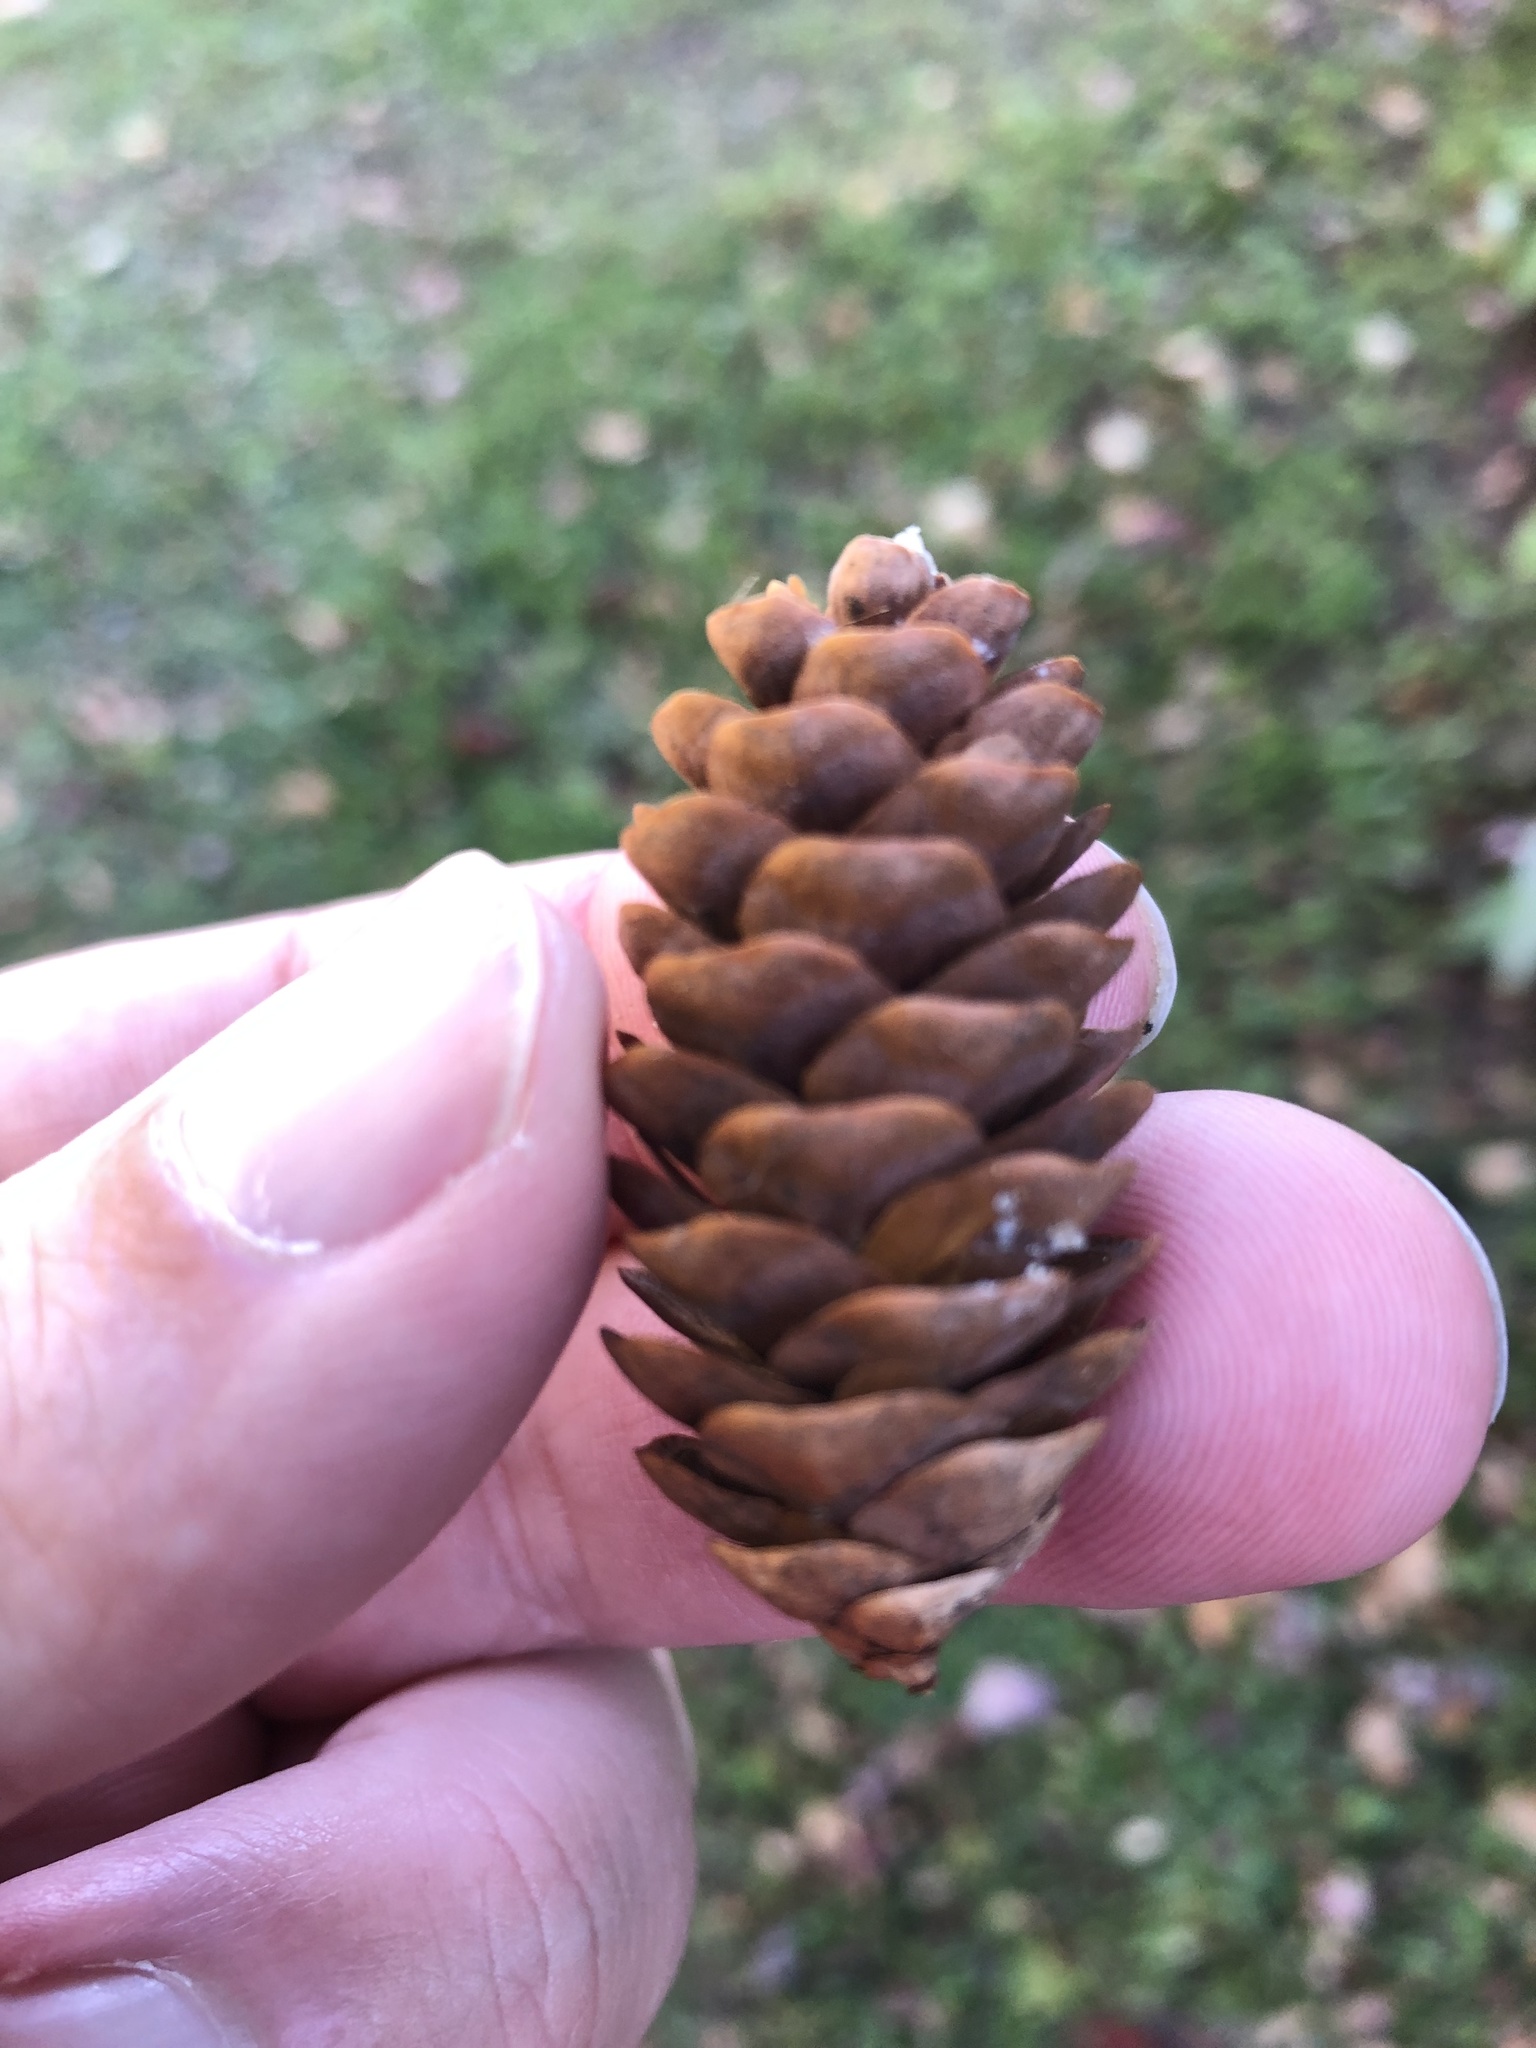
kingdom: Plantae
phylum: Tracheophyta
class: Pinopsida
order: Pinales
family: Pinaceae
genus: Picea
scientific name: Picea glauca
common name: White spruce
